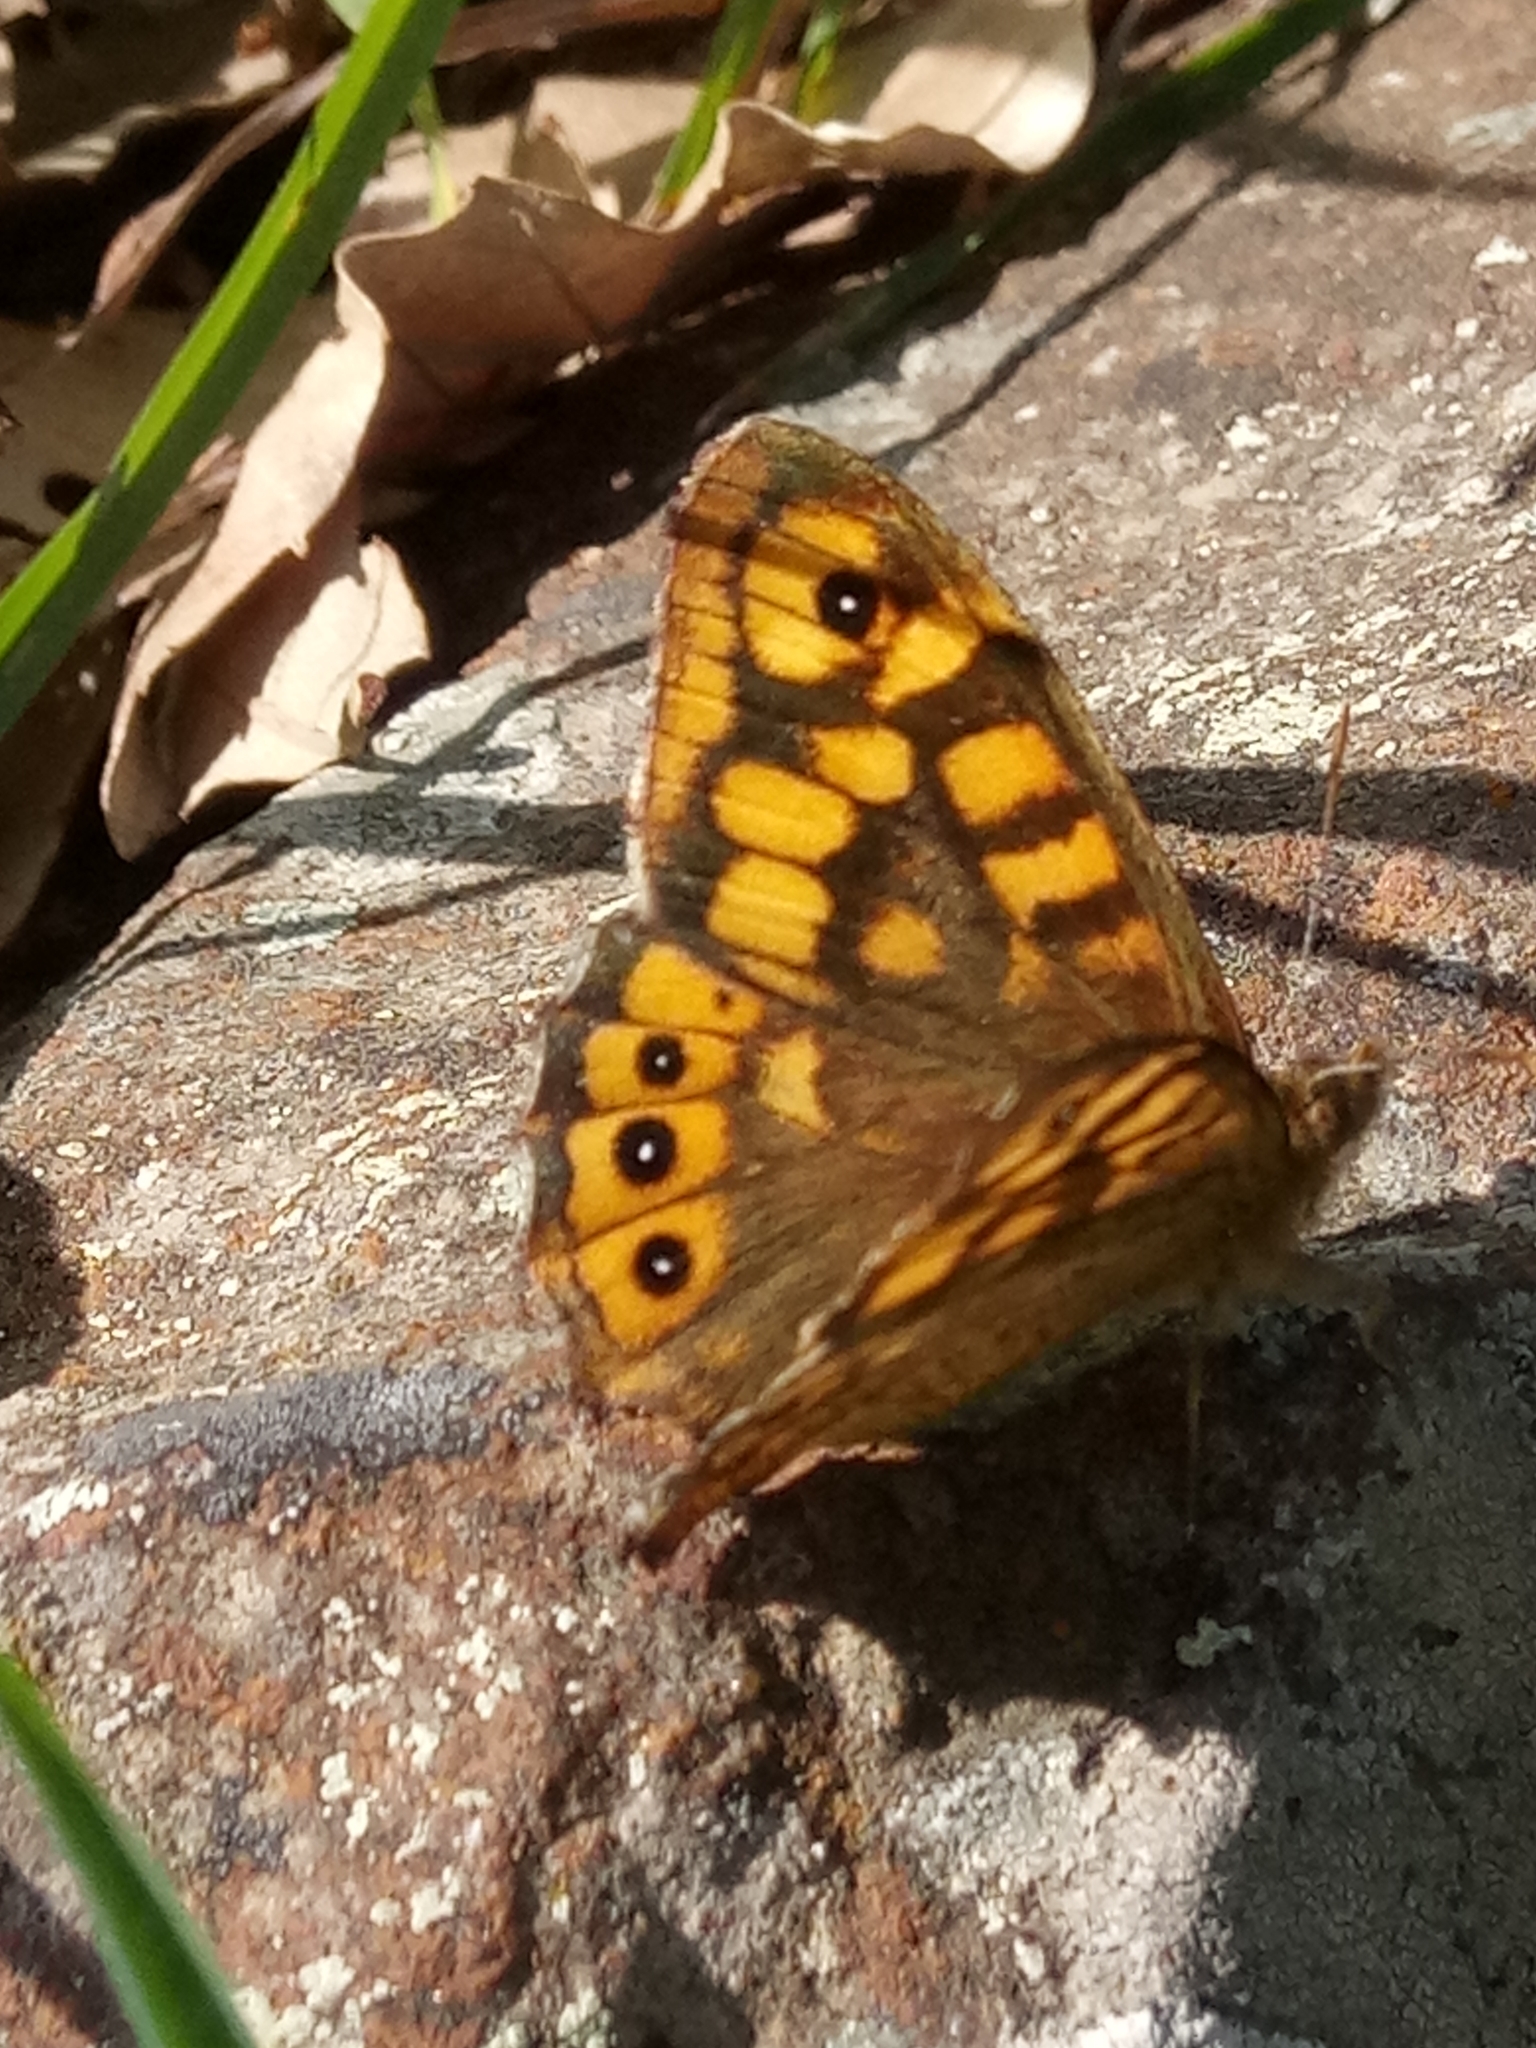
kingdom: Animalia
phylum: Arthropoda
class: Insecta
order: Lepidoptera
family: Nymphalidae
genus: Pararge
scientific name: Pararge aegeria
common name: Speckled wood
